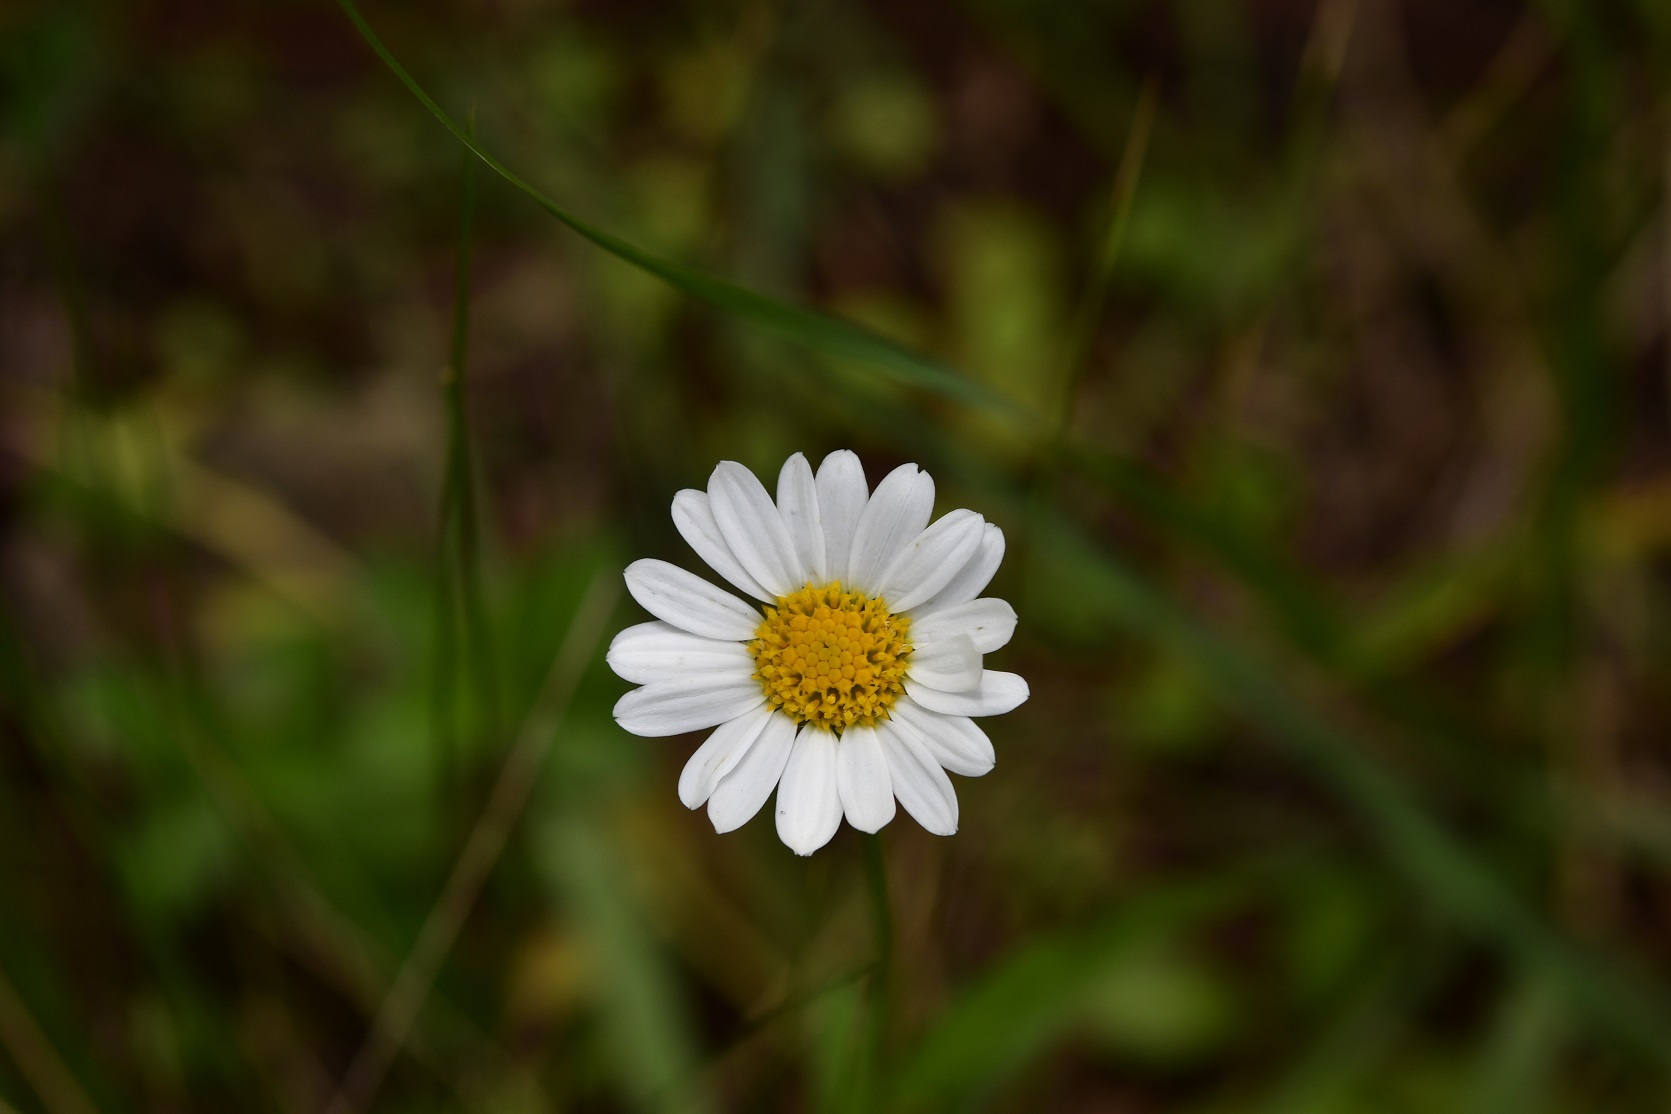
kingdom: Plantae
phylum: Tracheophyta
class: Magnoliopsida
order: Asterales
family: Asteraceae
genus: Erigeron
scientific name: Erigeron karvinskianus
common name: Mexican fleabane
